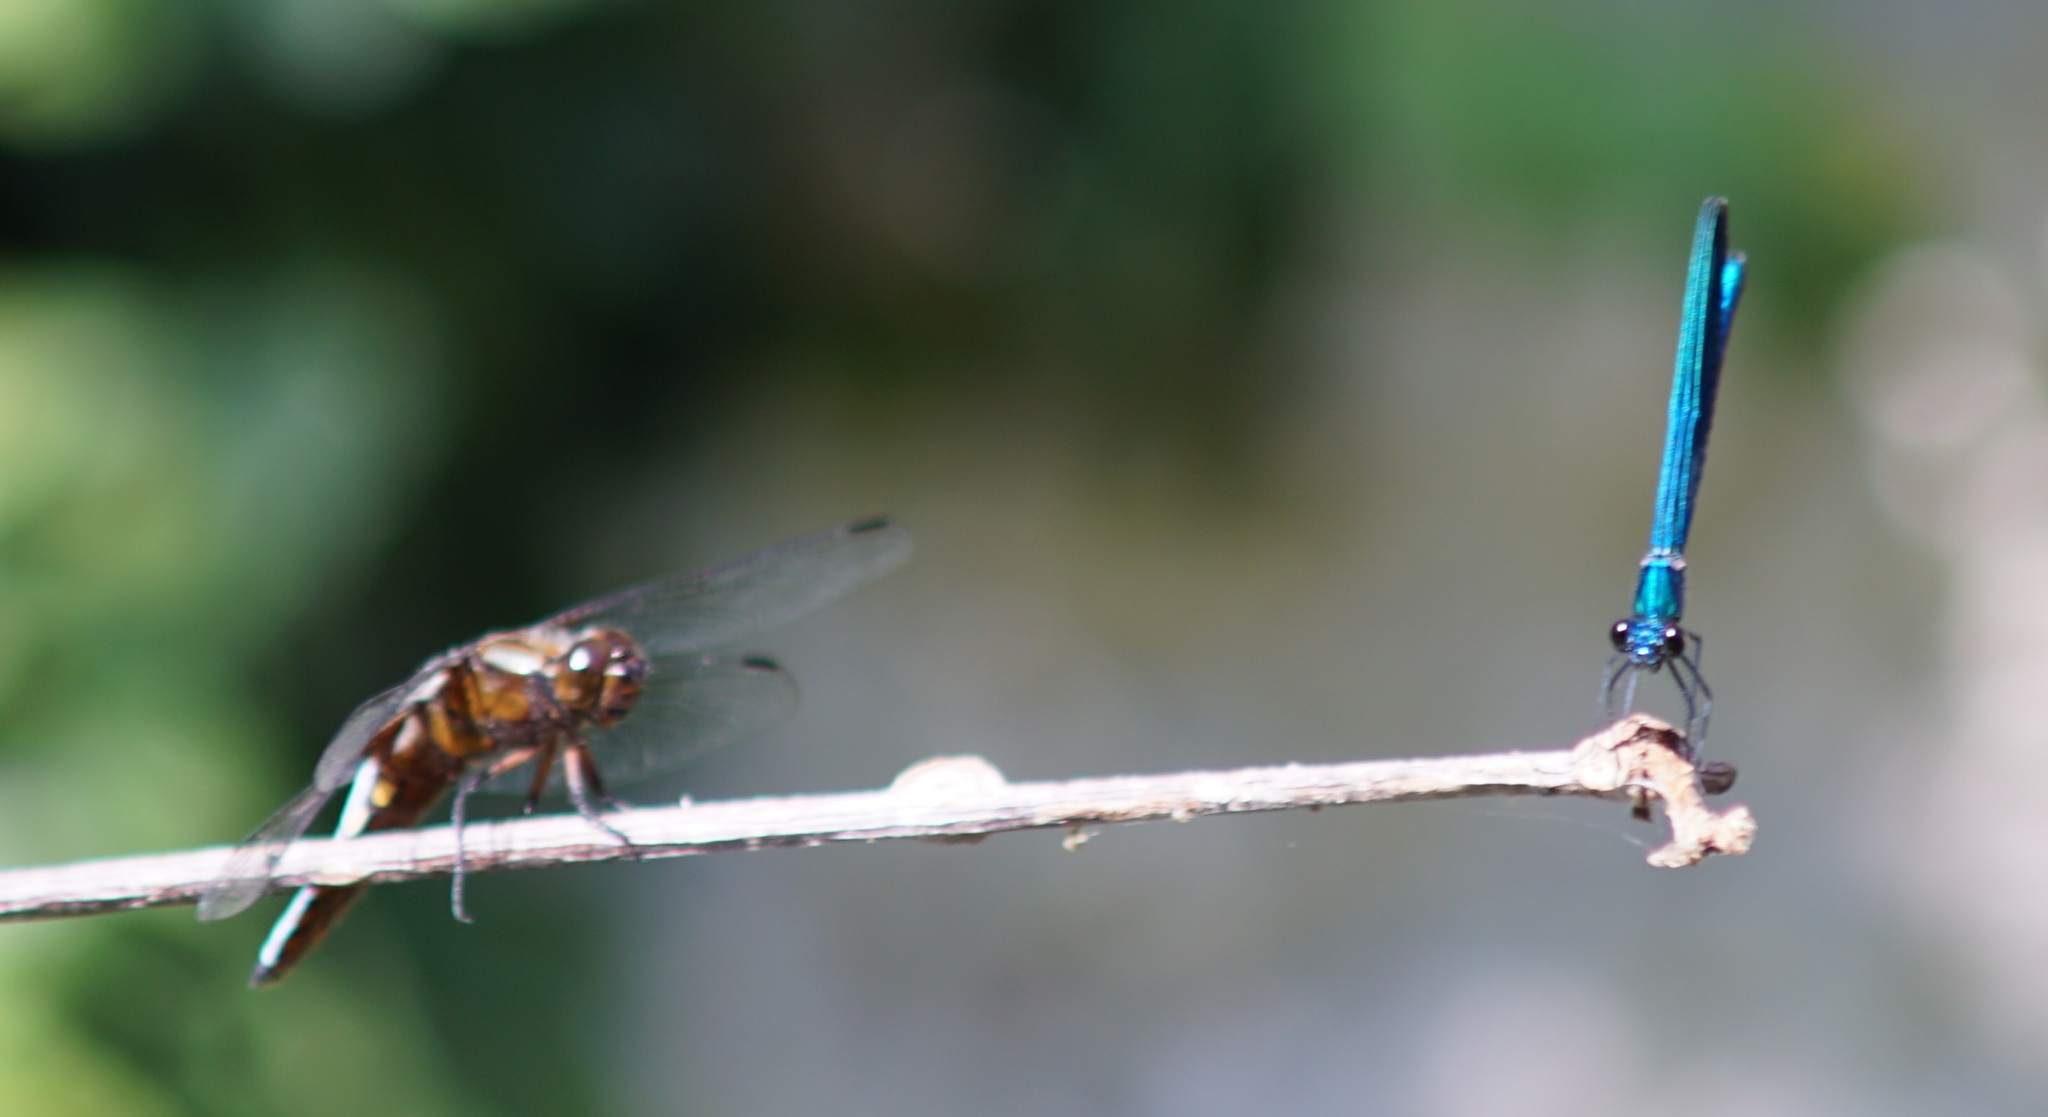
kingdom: Animalia
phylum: Arthropoda
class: Insecta
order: Odonata
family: Libellulidae
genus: Libellula
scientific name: Libellula depressa
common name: Broad-bodied chaser
